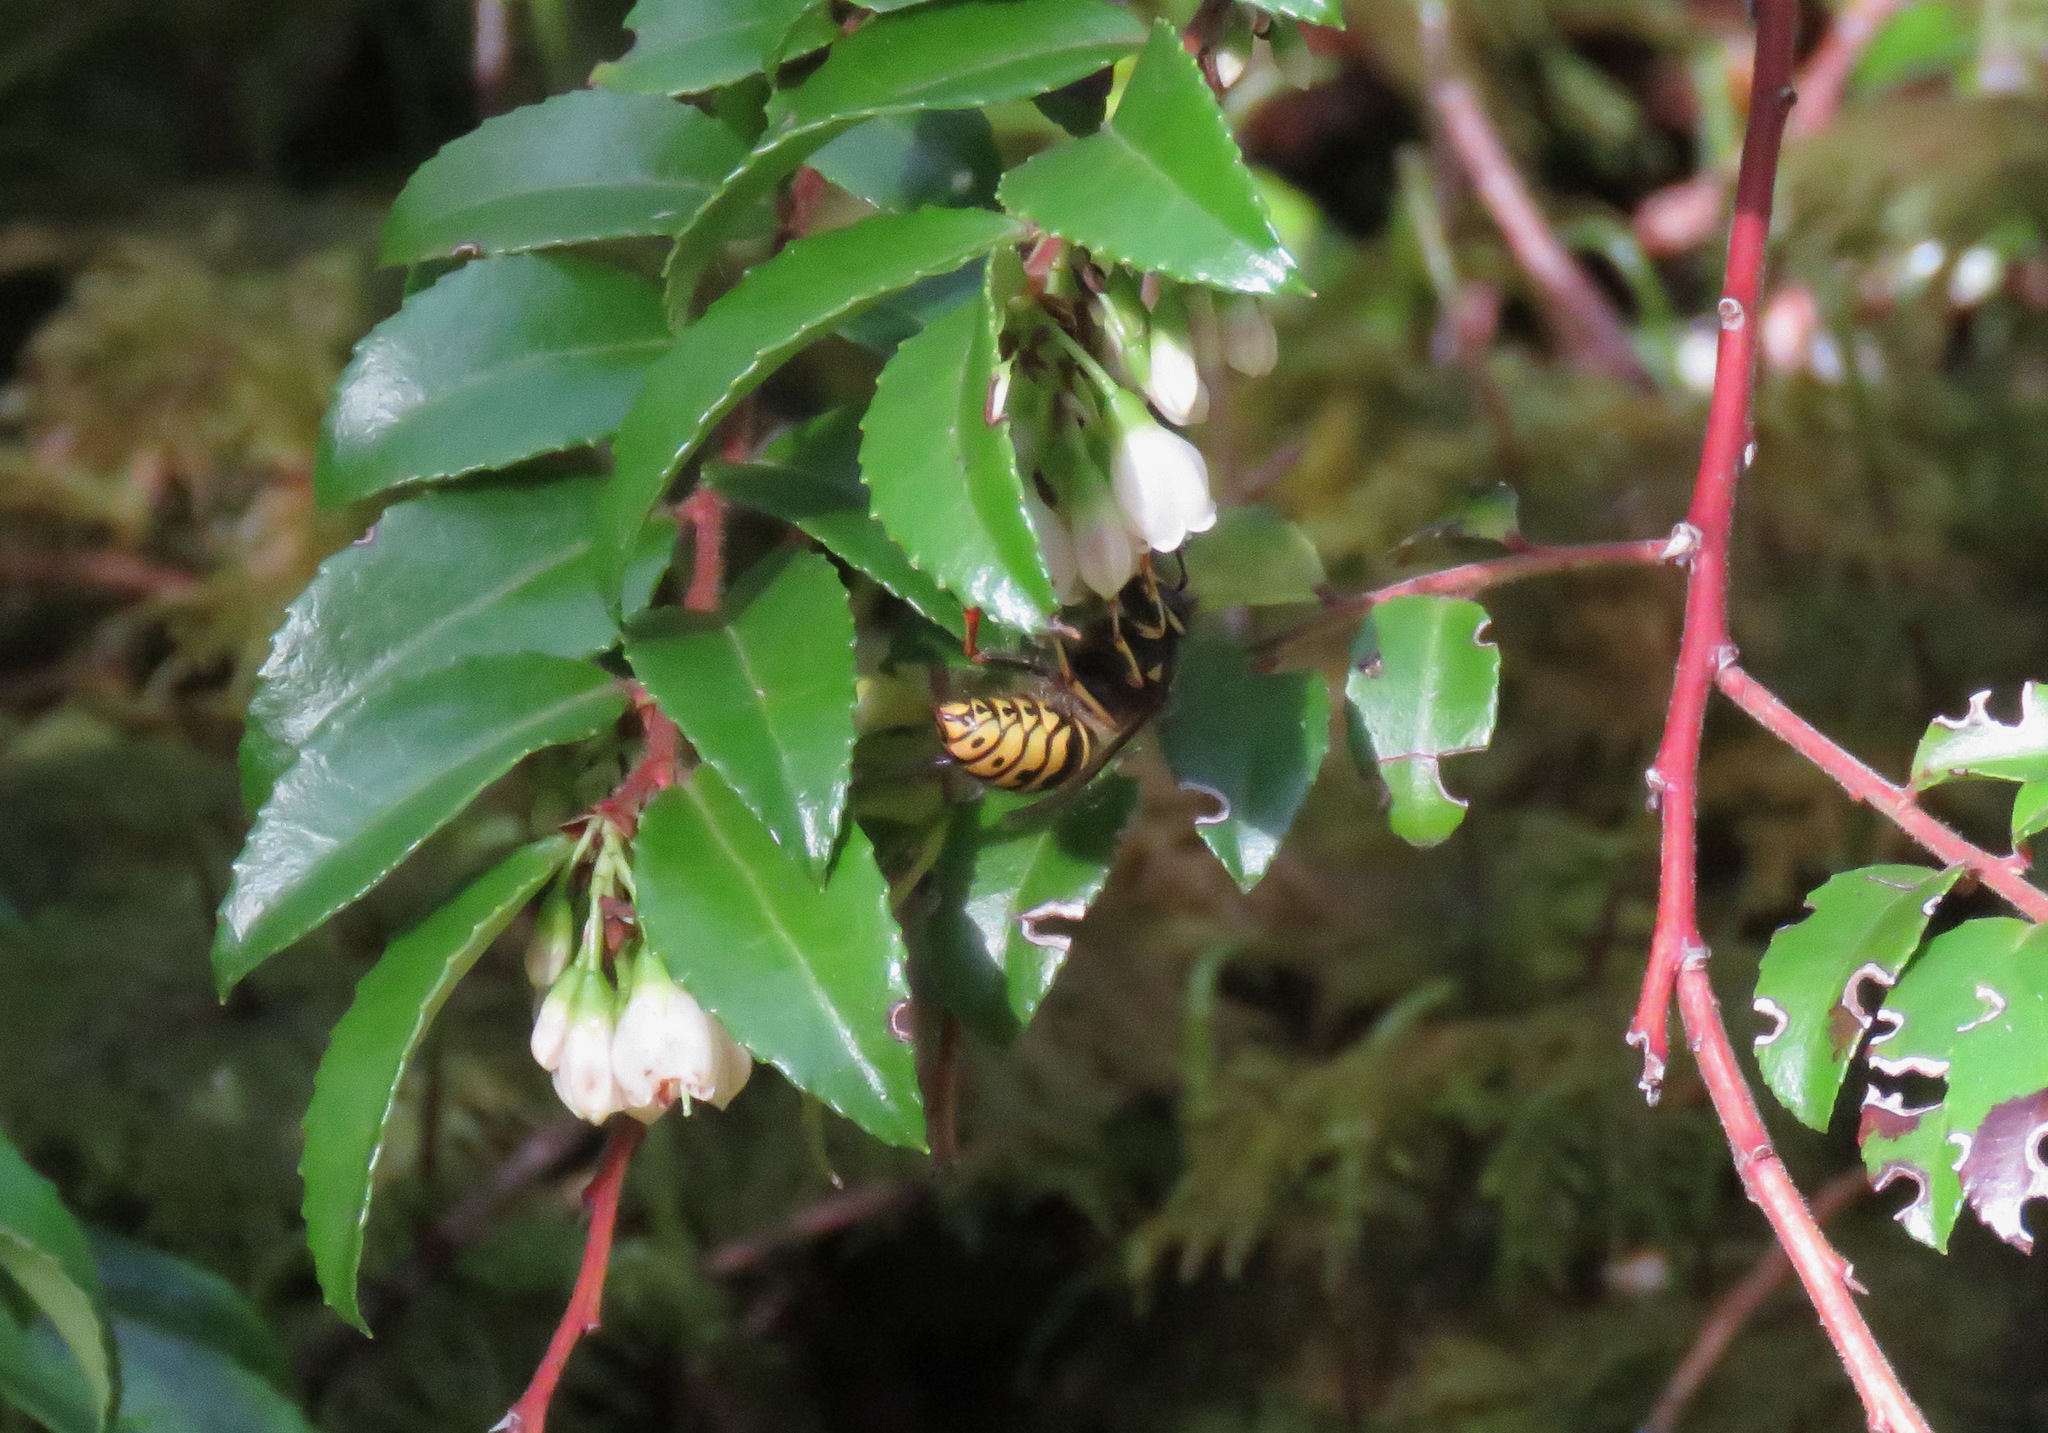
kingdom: Animalia
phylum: Arthropoda
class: Insecta
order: Hymenoptera
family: Vespidae
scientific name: Vespidae
